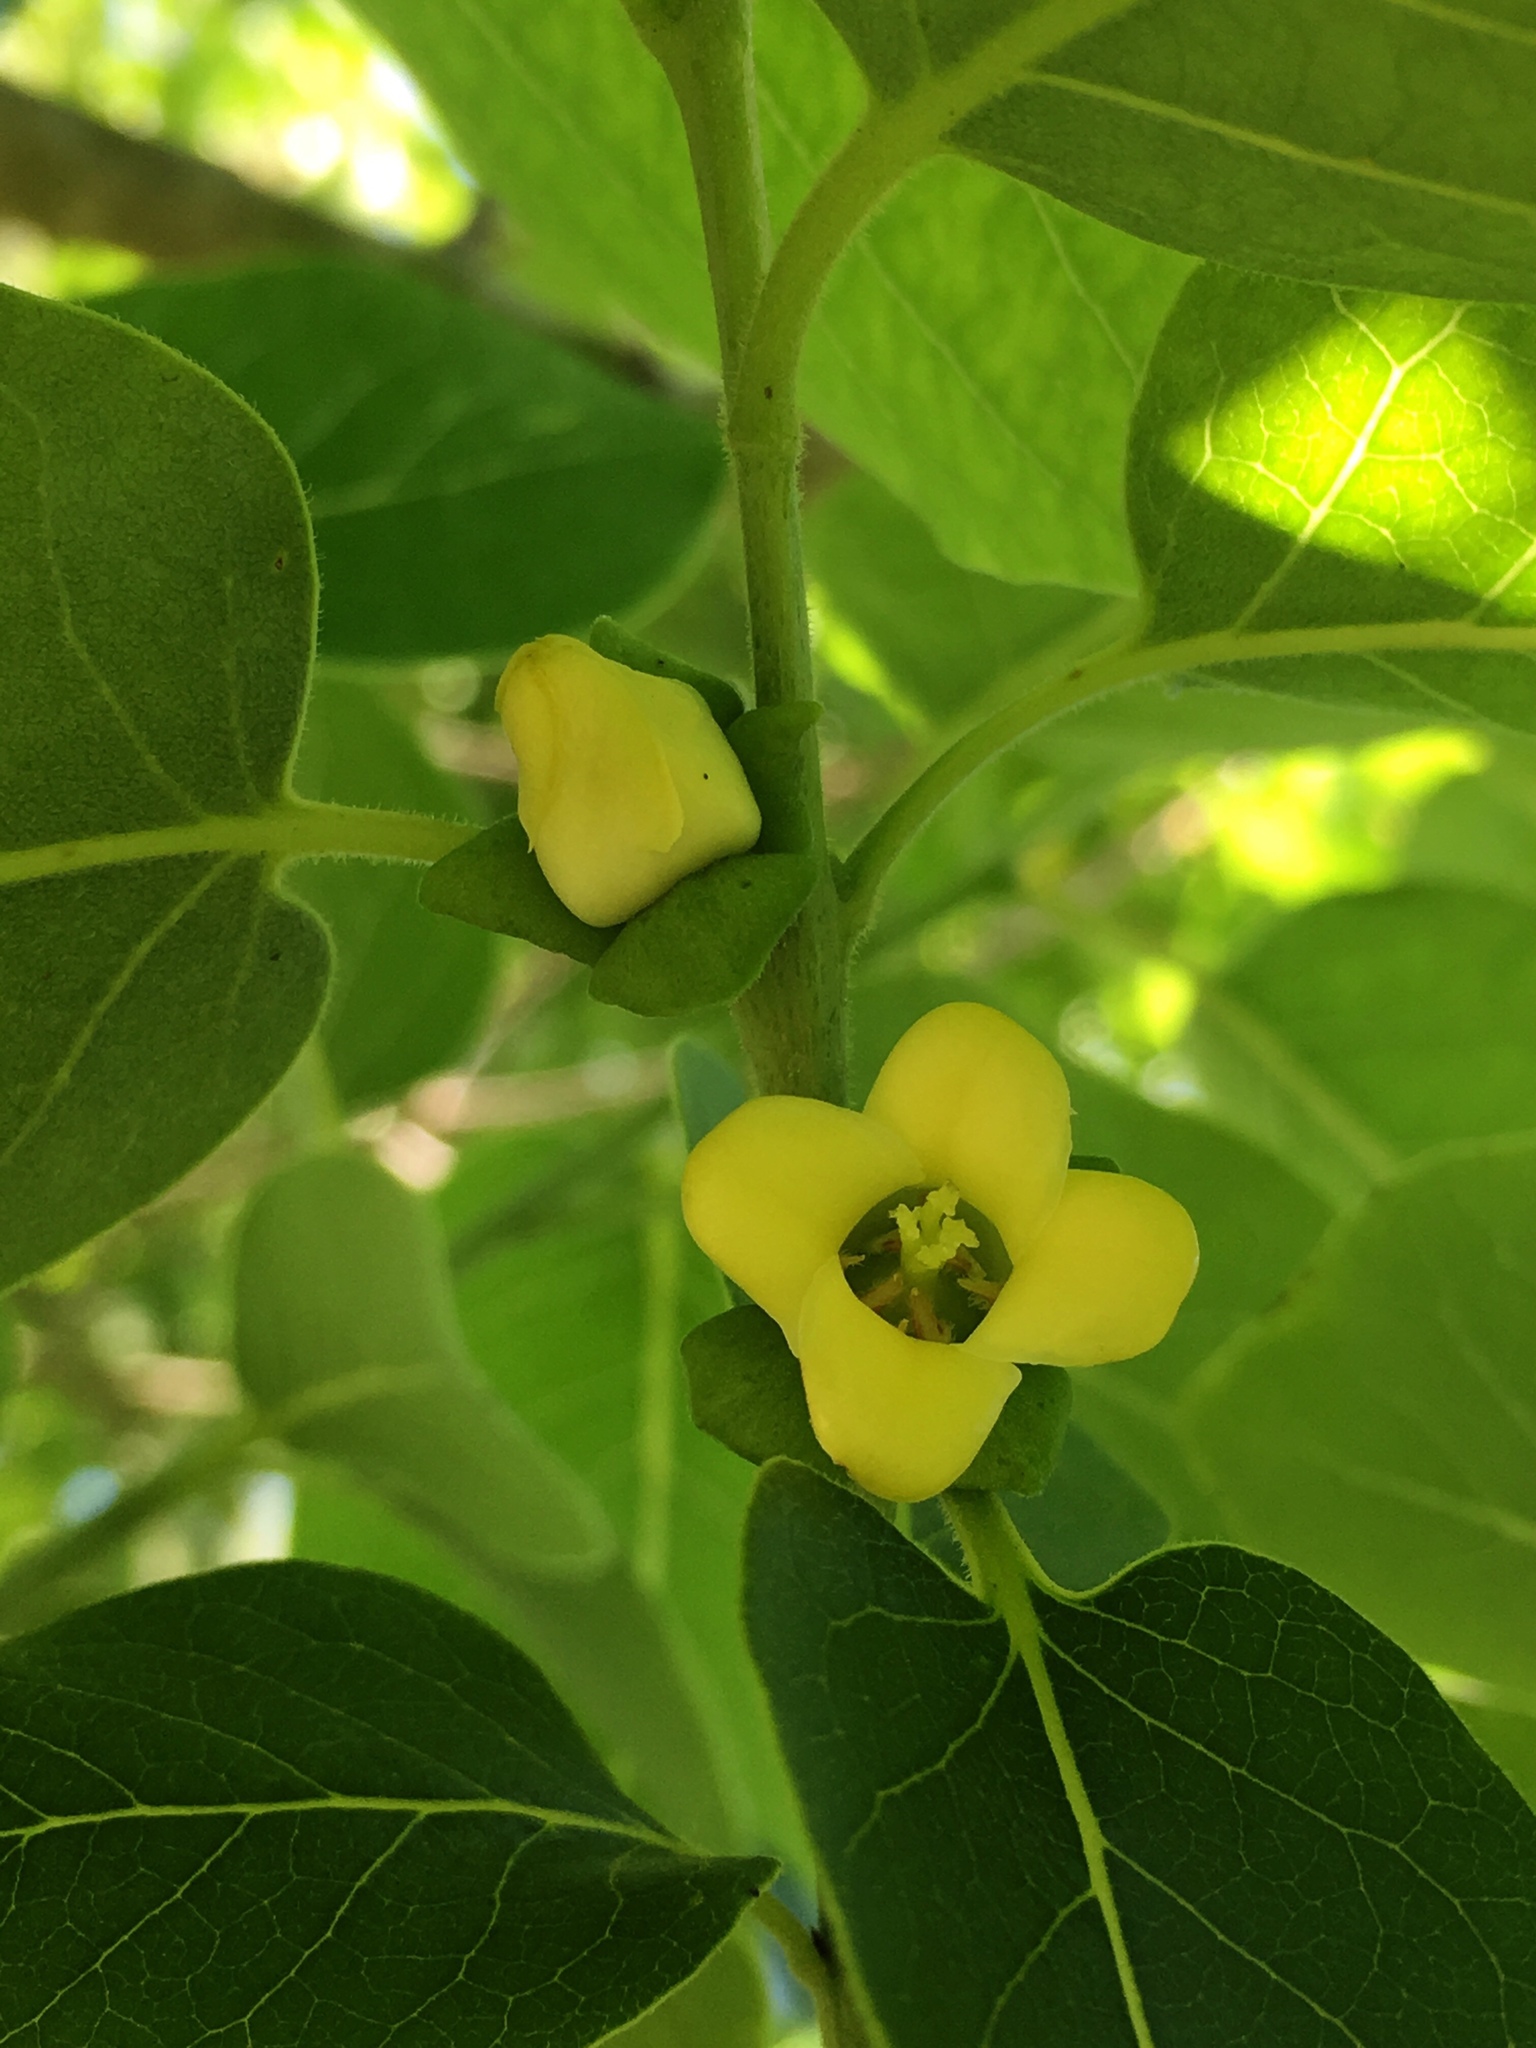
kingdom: Plantae
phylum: Tracheophyta
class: Magnoliopsida
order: Ericales
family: Ebenaceae
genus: Diospyros
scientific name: Diospyros virginiana
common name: Persimmon
